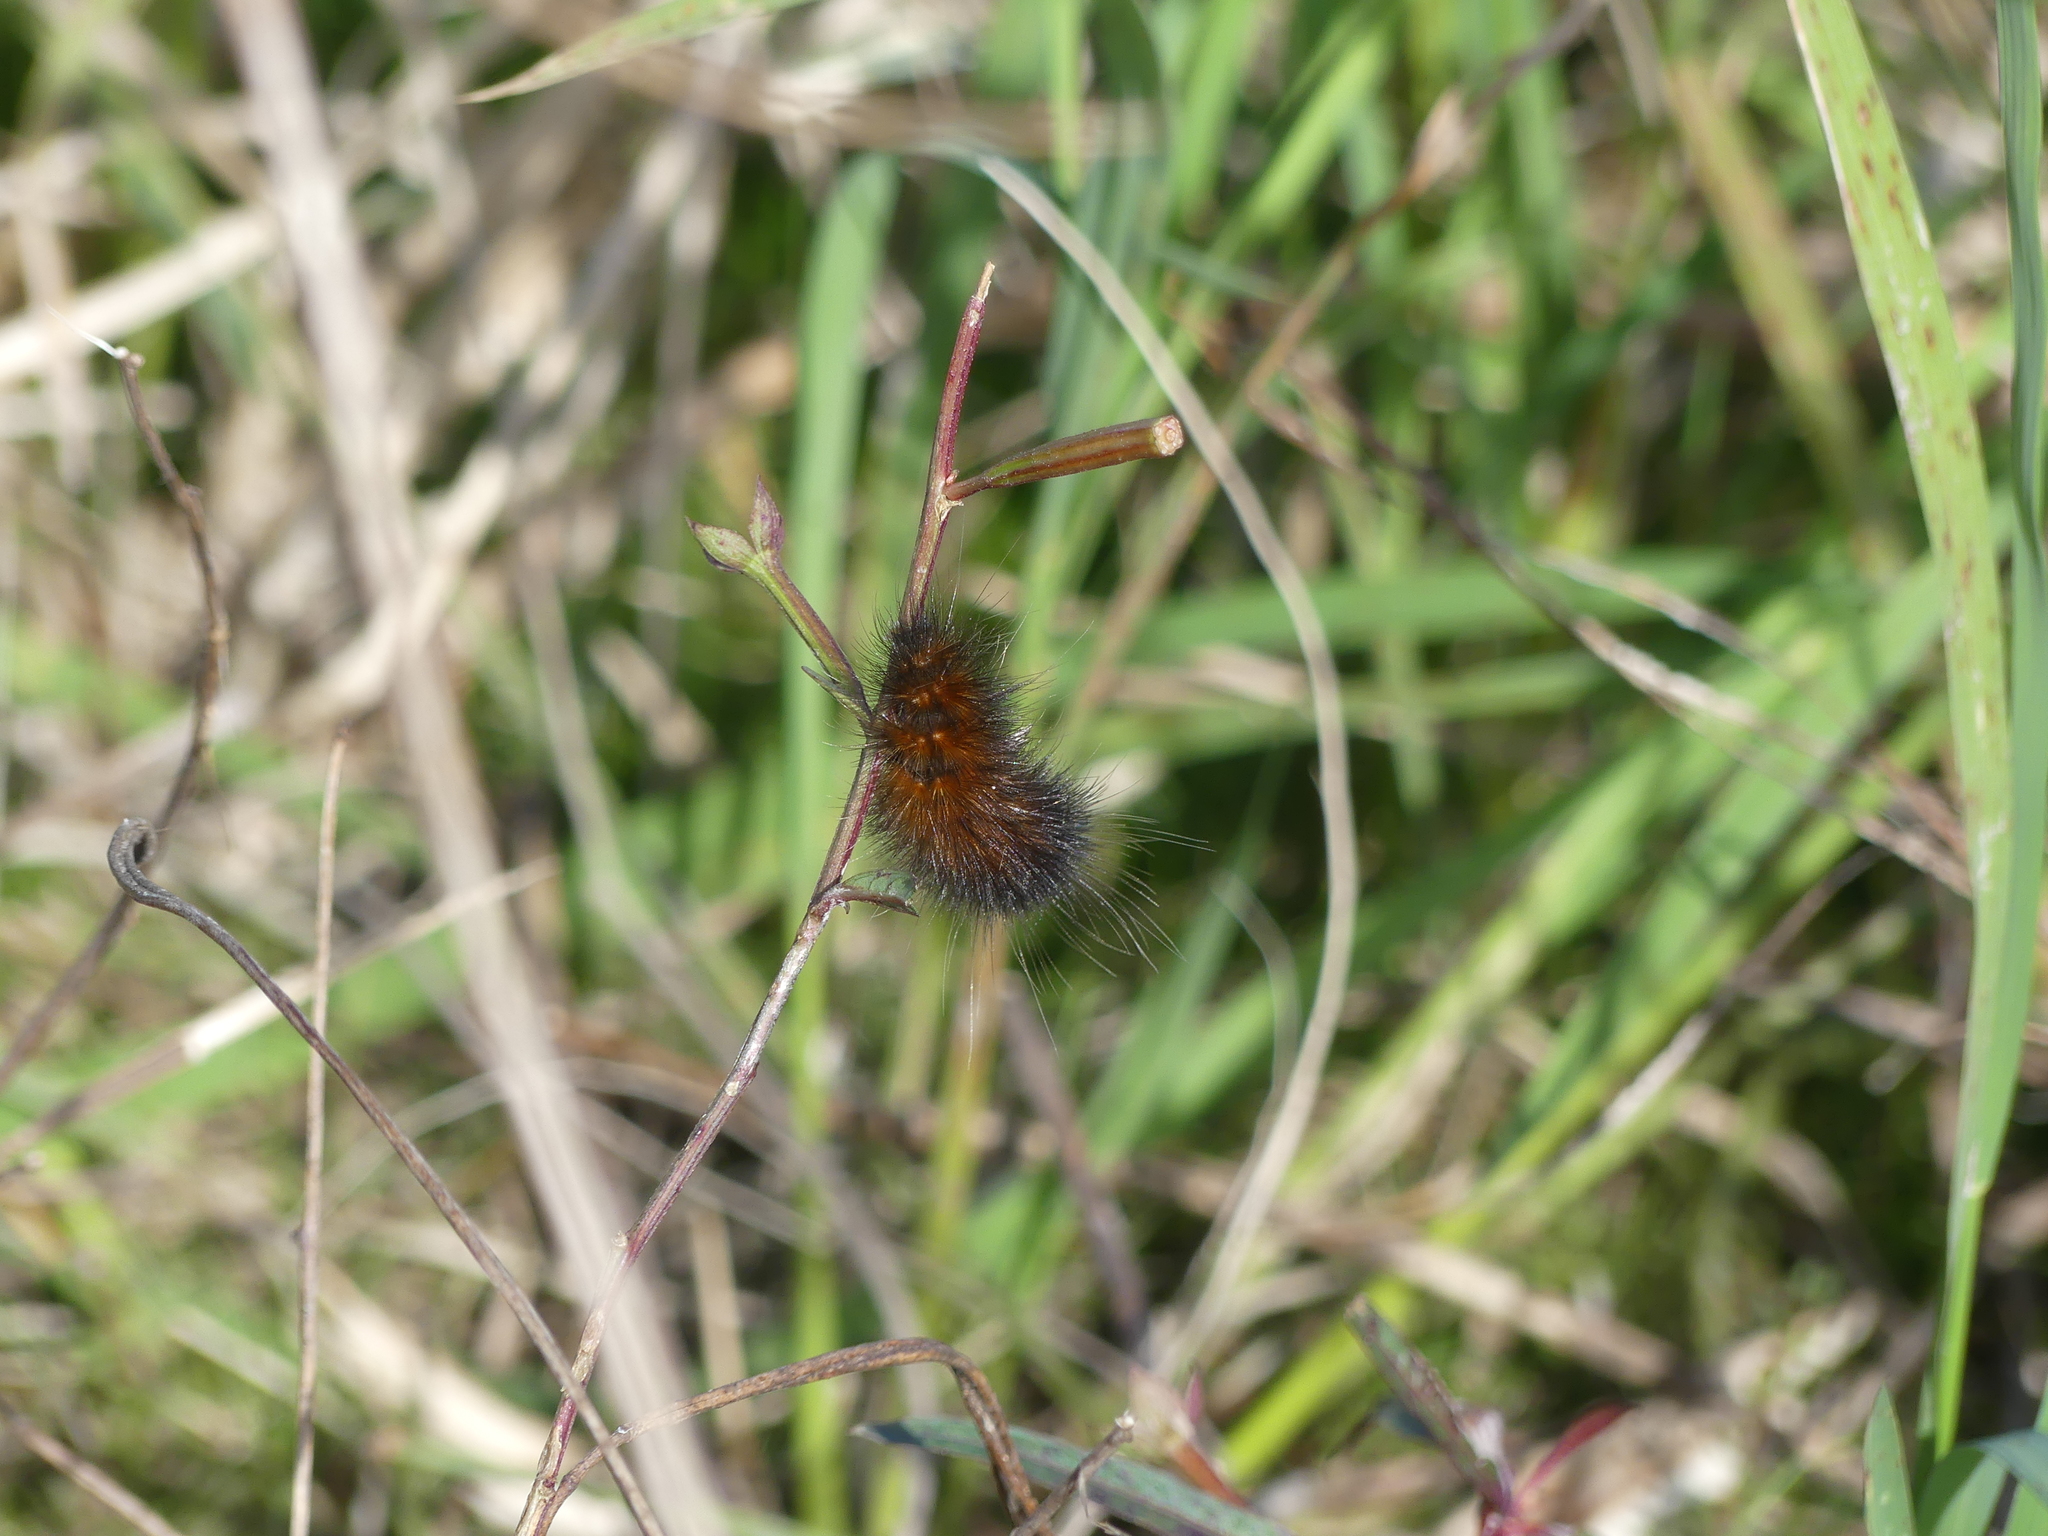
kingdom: Animalia
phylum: Arthropoda
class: Insecta
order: Lepidoptera
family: Erebidae
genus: Estigmene
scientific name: Estigmene acrea
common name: Salt marsh moth
